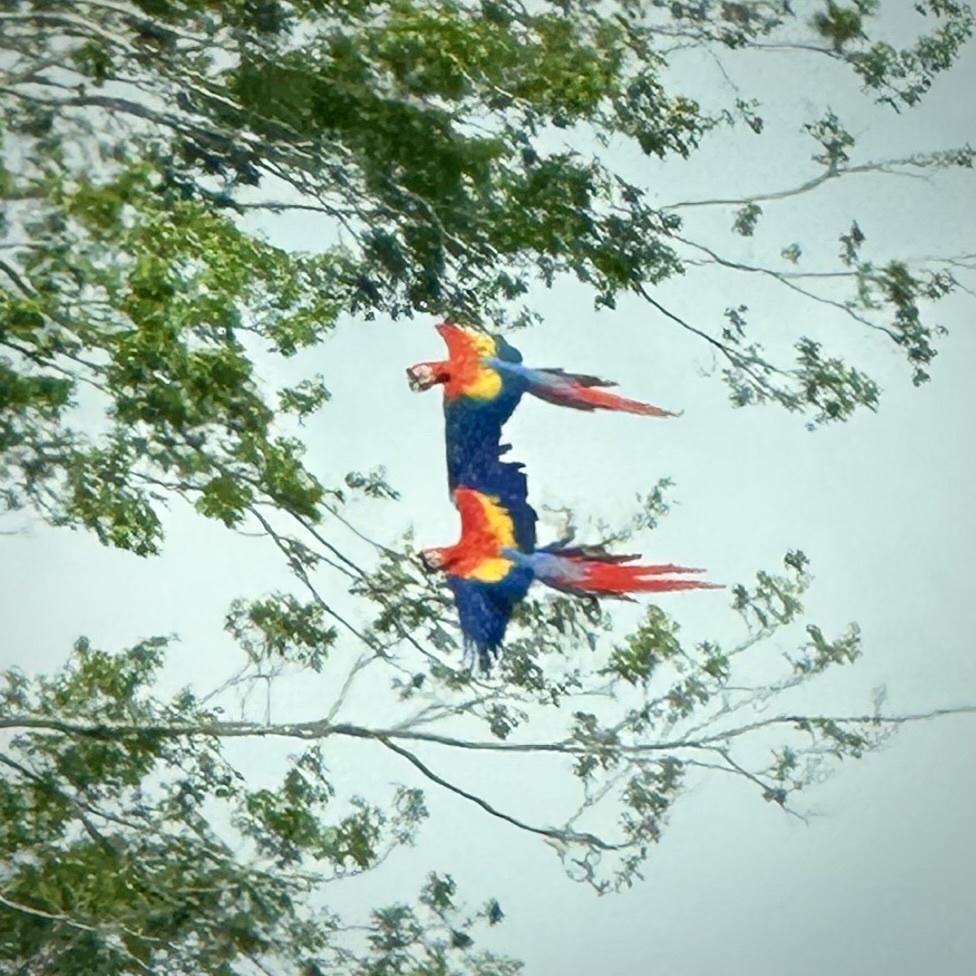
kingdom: Animalia
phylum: Chordata
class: Aves
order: Psittaciformes
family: Psittacidae
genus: Ara
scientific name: Ara macao
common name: Scarlet macaw
